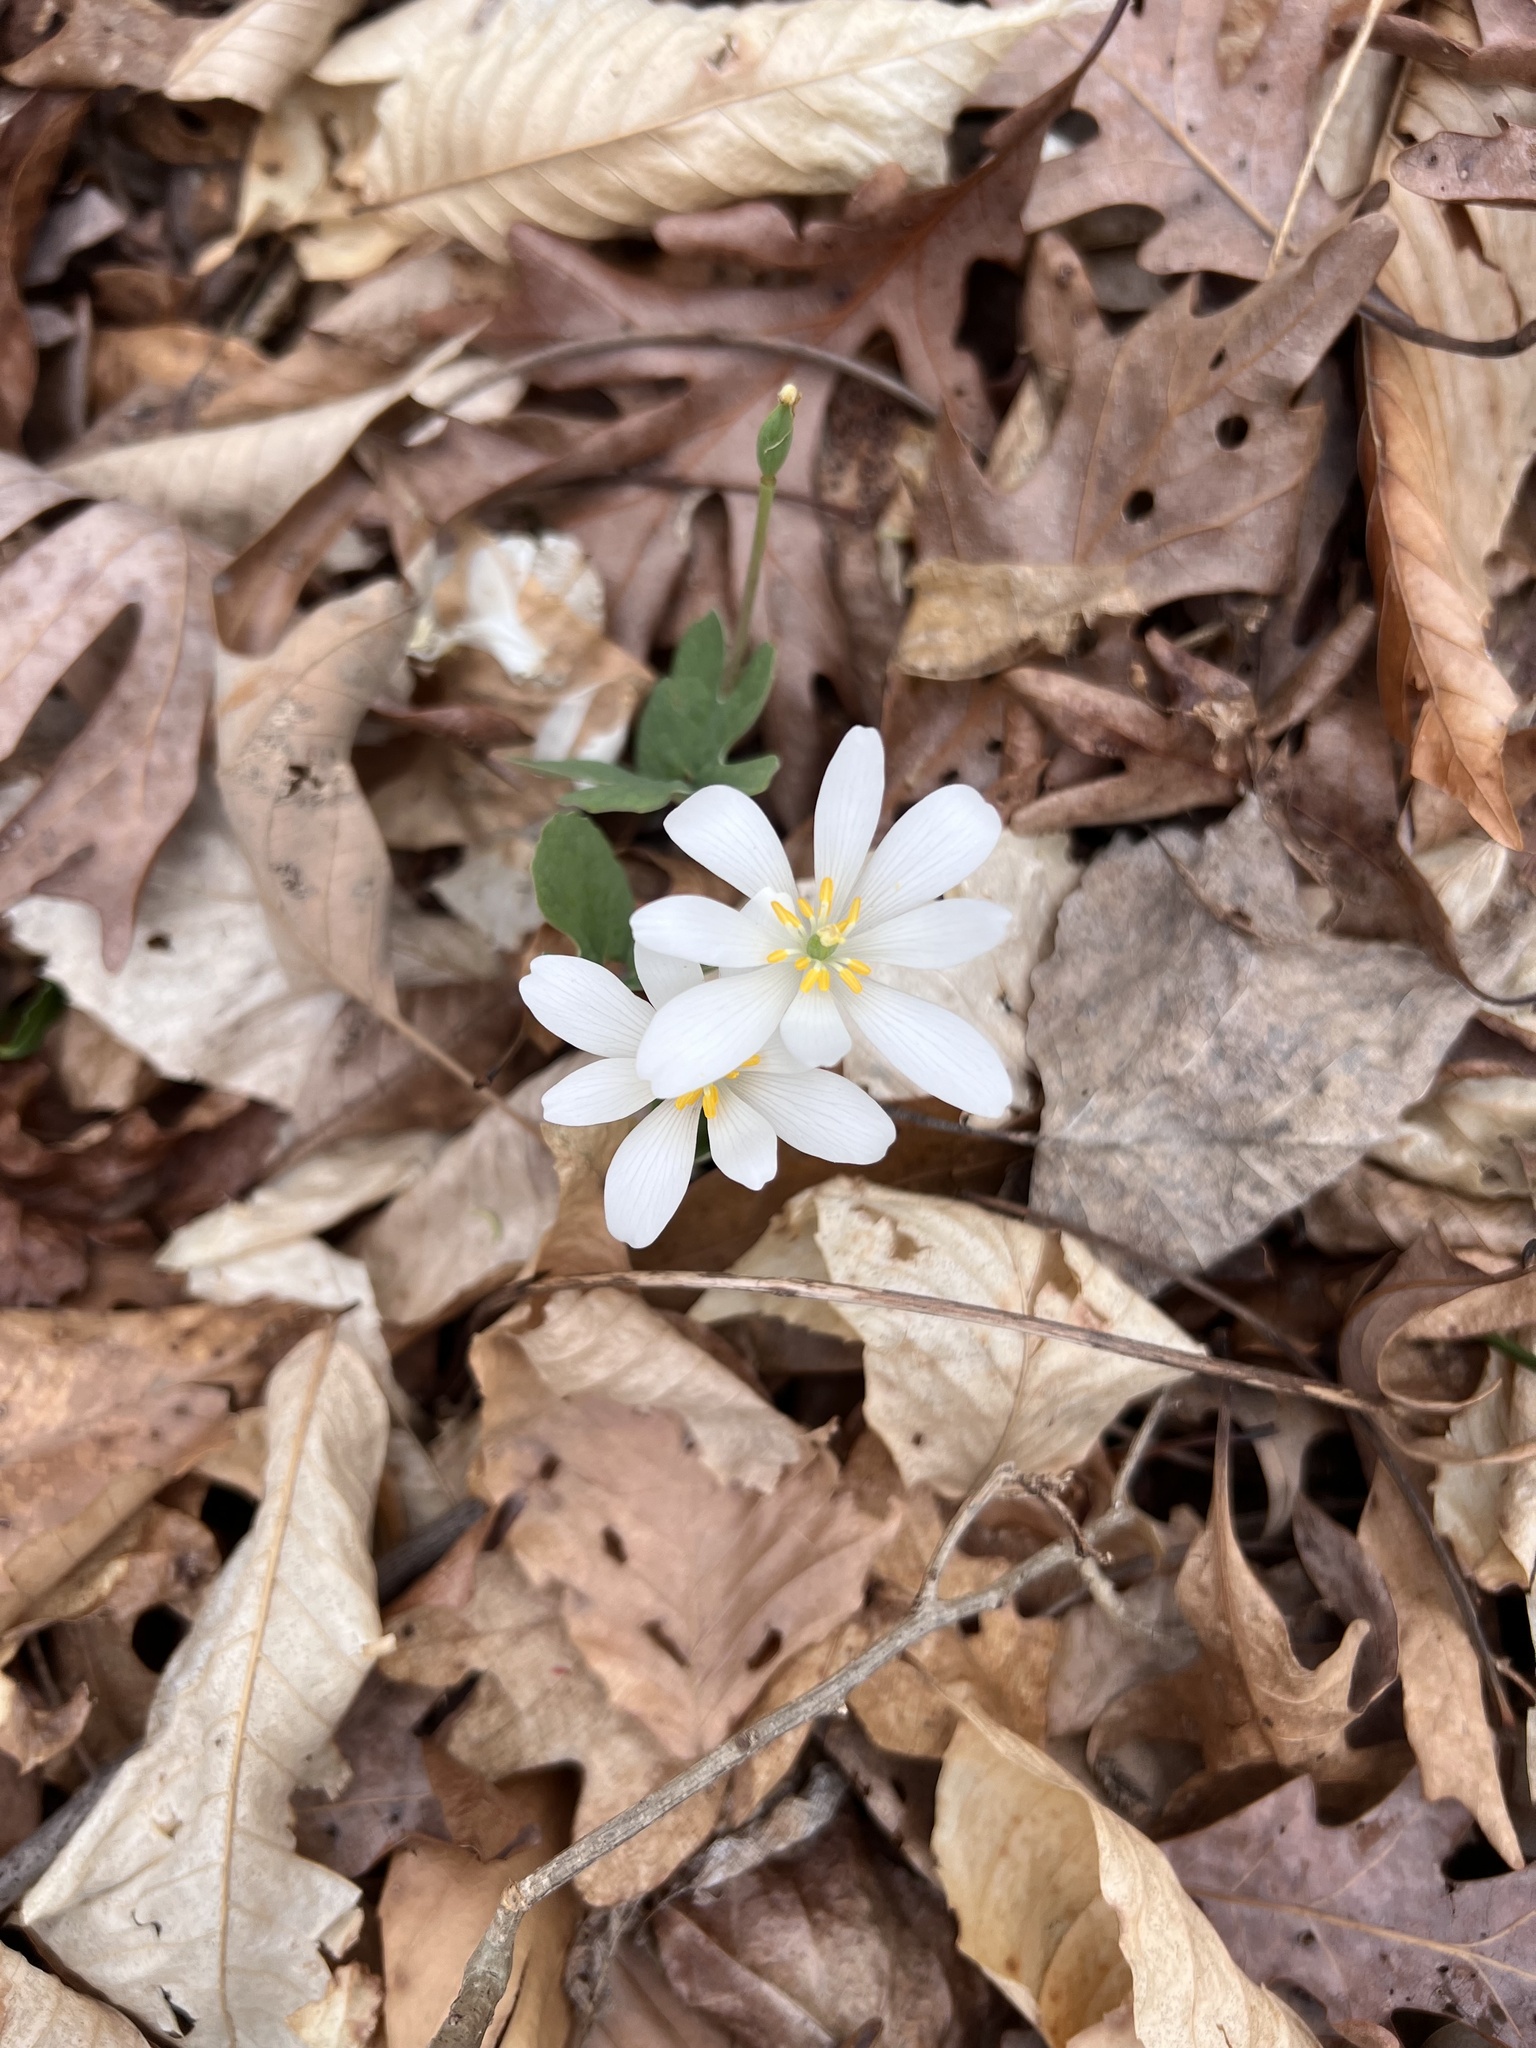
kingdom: Plantae
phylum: Tracheophyta
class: Magnoliopsida
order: Ranunculales
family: Papaveraceae
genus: Sanguinaria
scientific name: Sanguinaria canadensis
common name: Bloodroot
